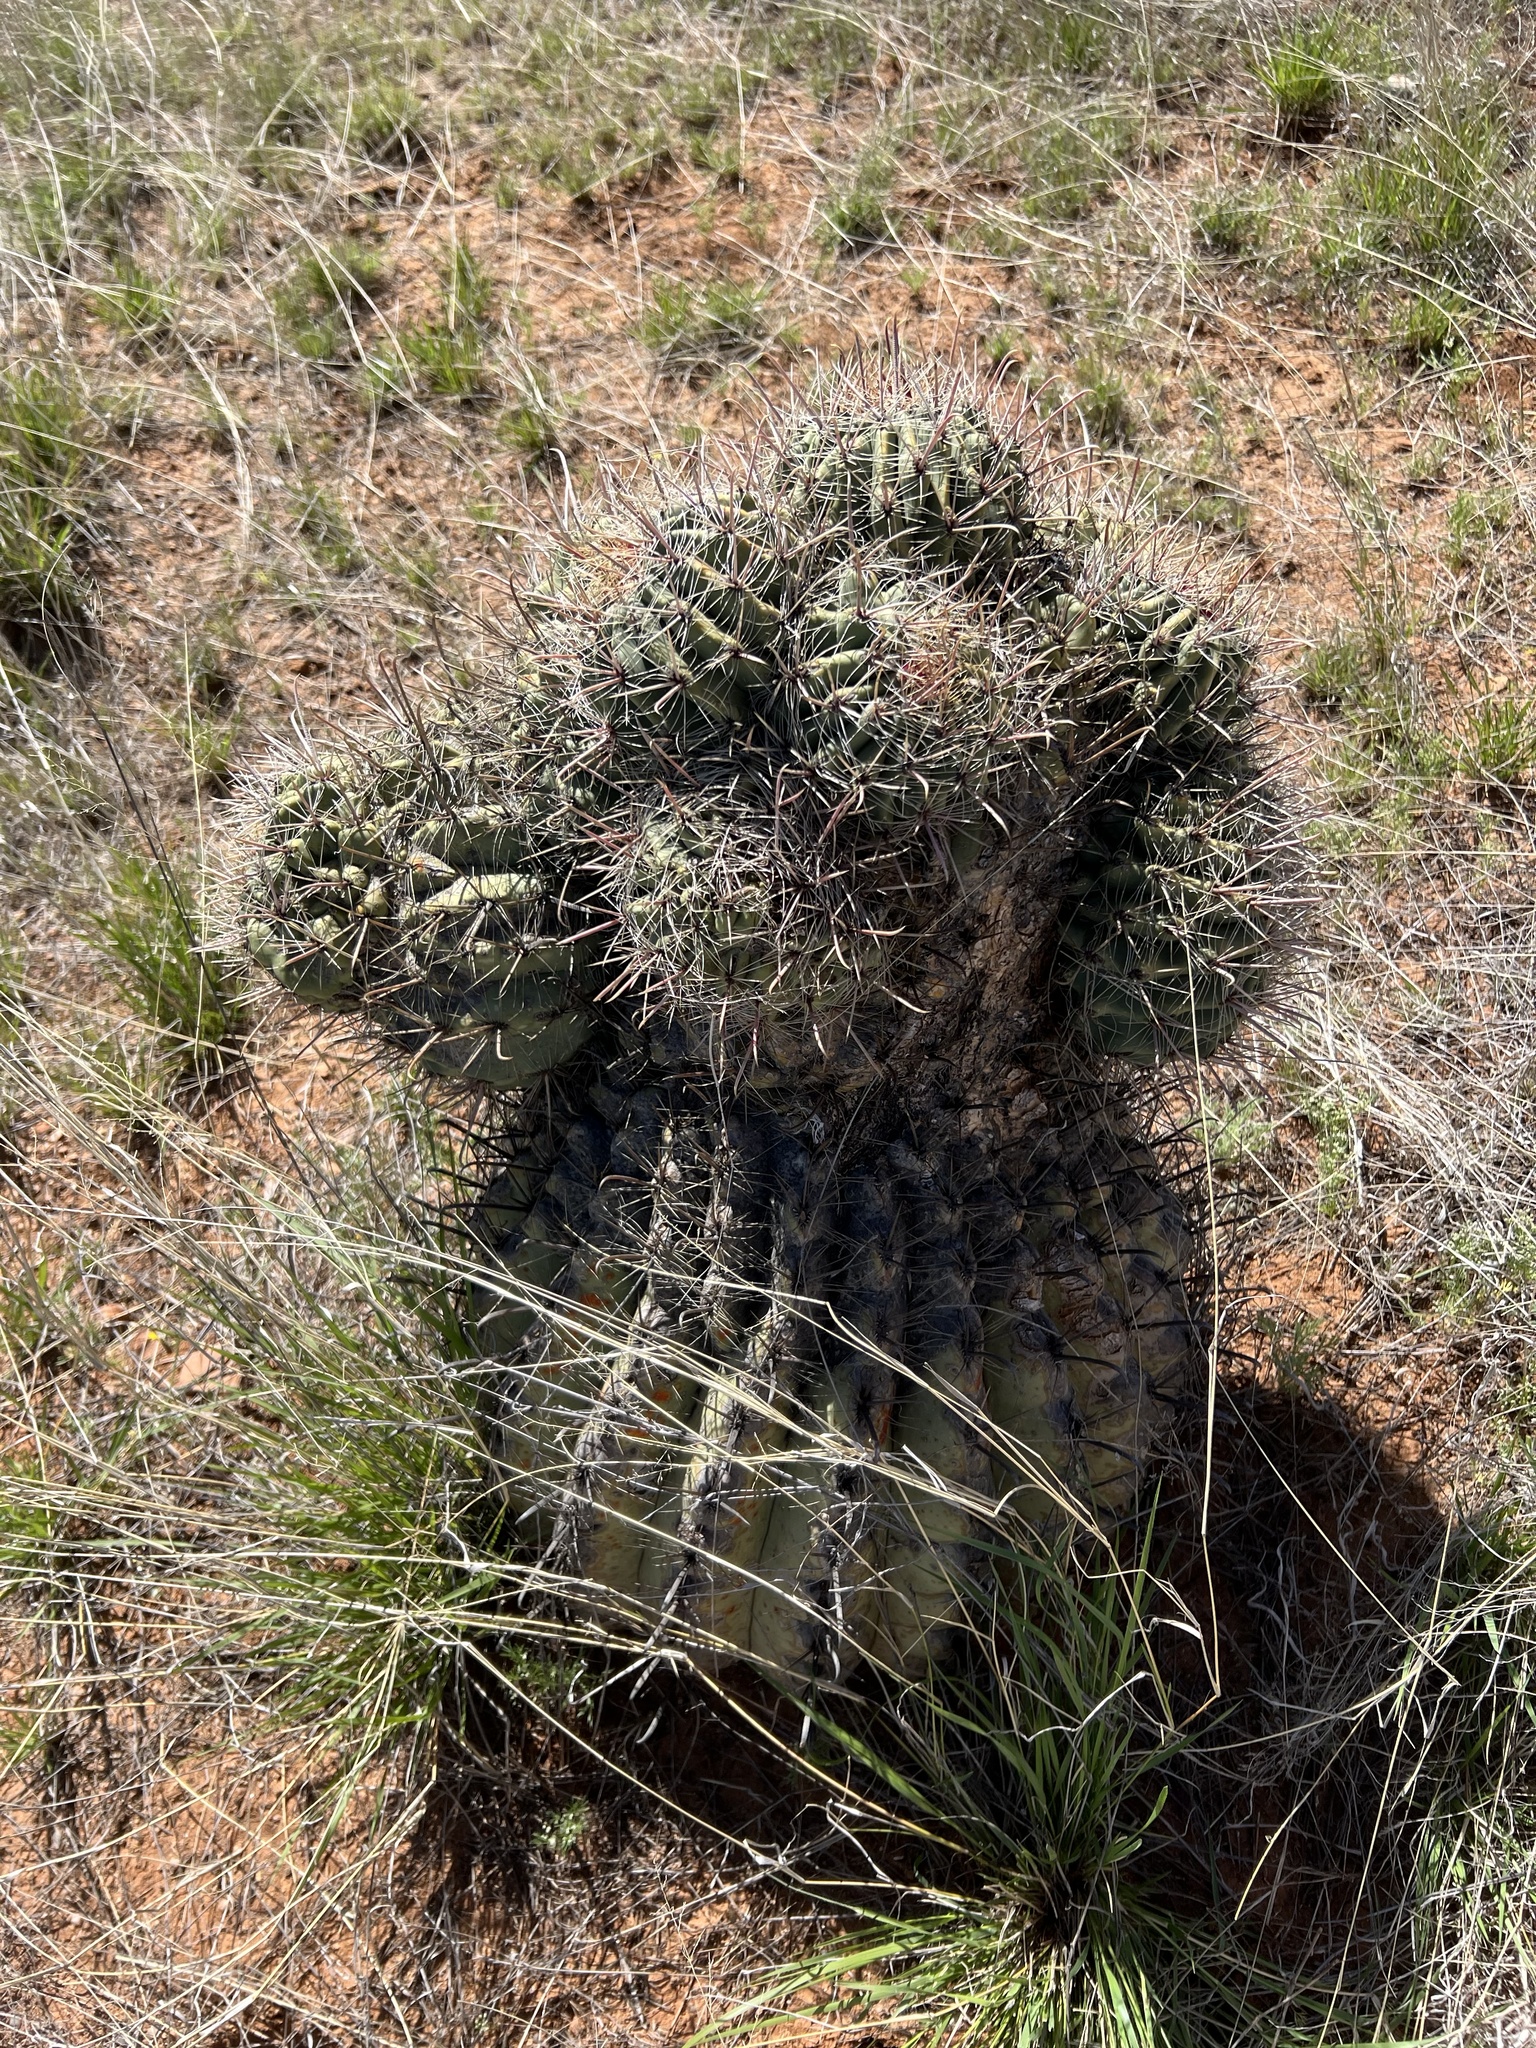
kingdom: Plantae
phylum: Tracheophyta
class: Magnoliopsida
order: Caryophyllales
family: Cactaceae
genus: Ferocactus
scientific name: Ferocactus wislizeni
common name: Candy barrel cactus
